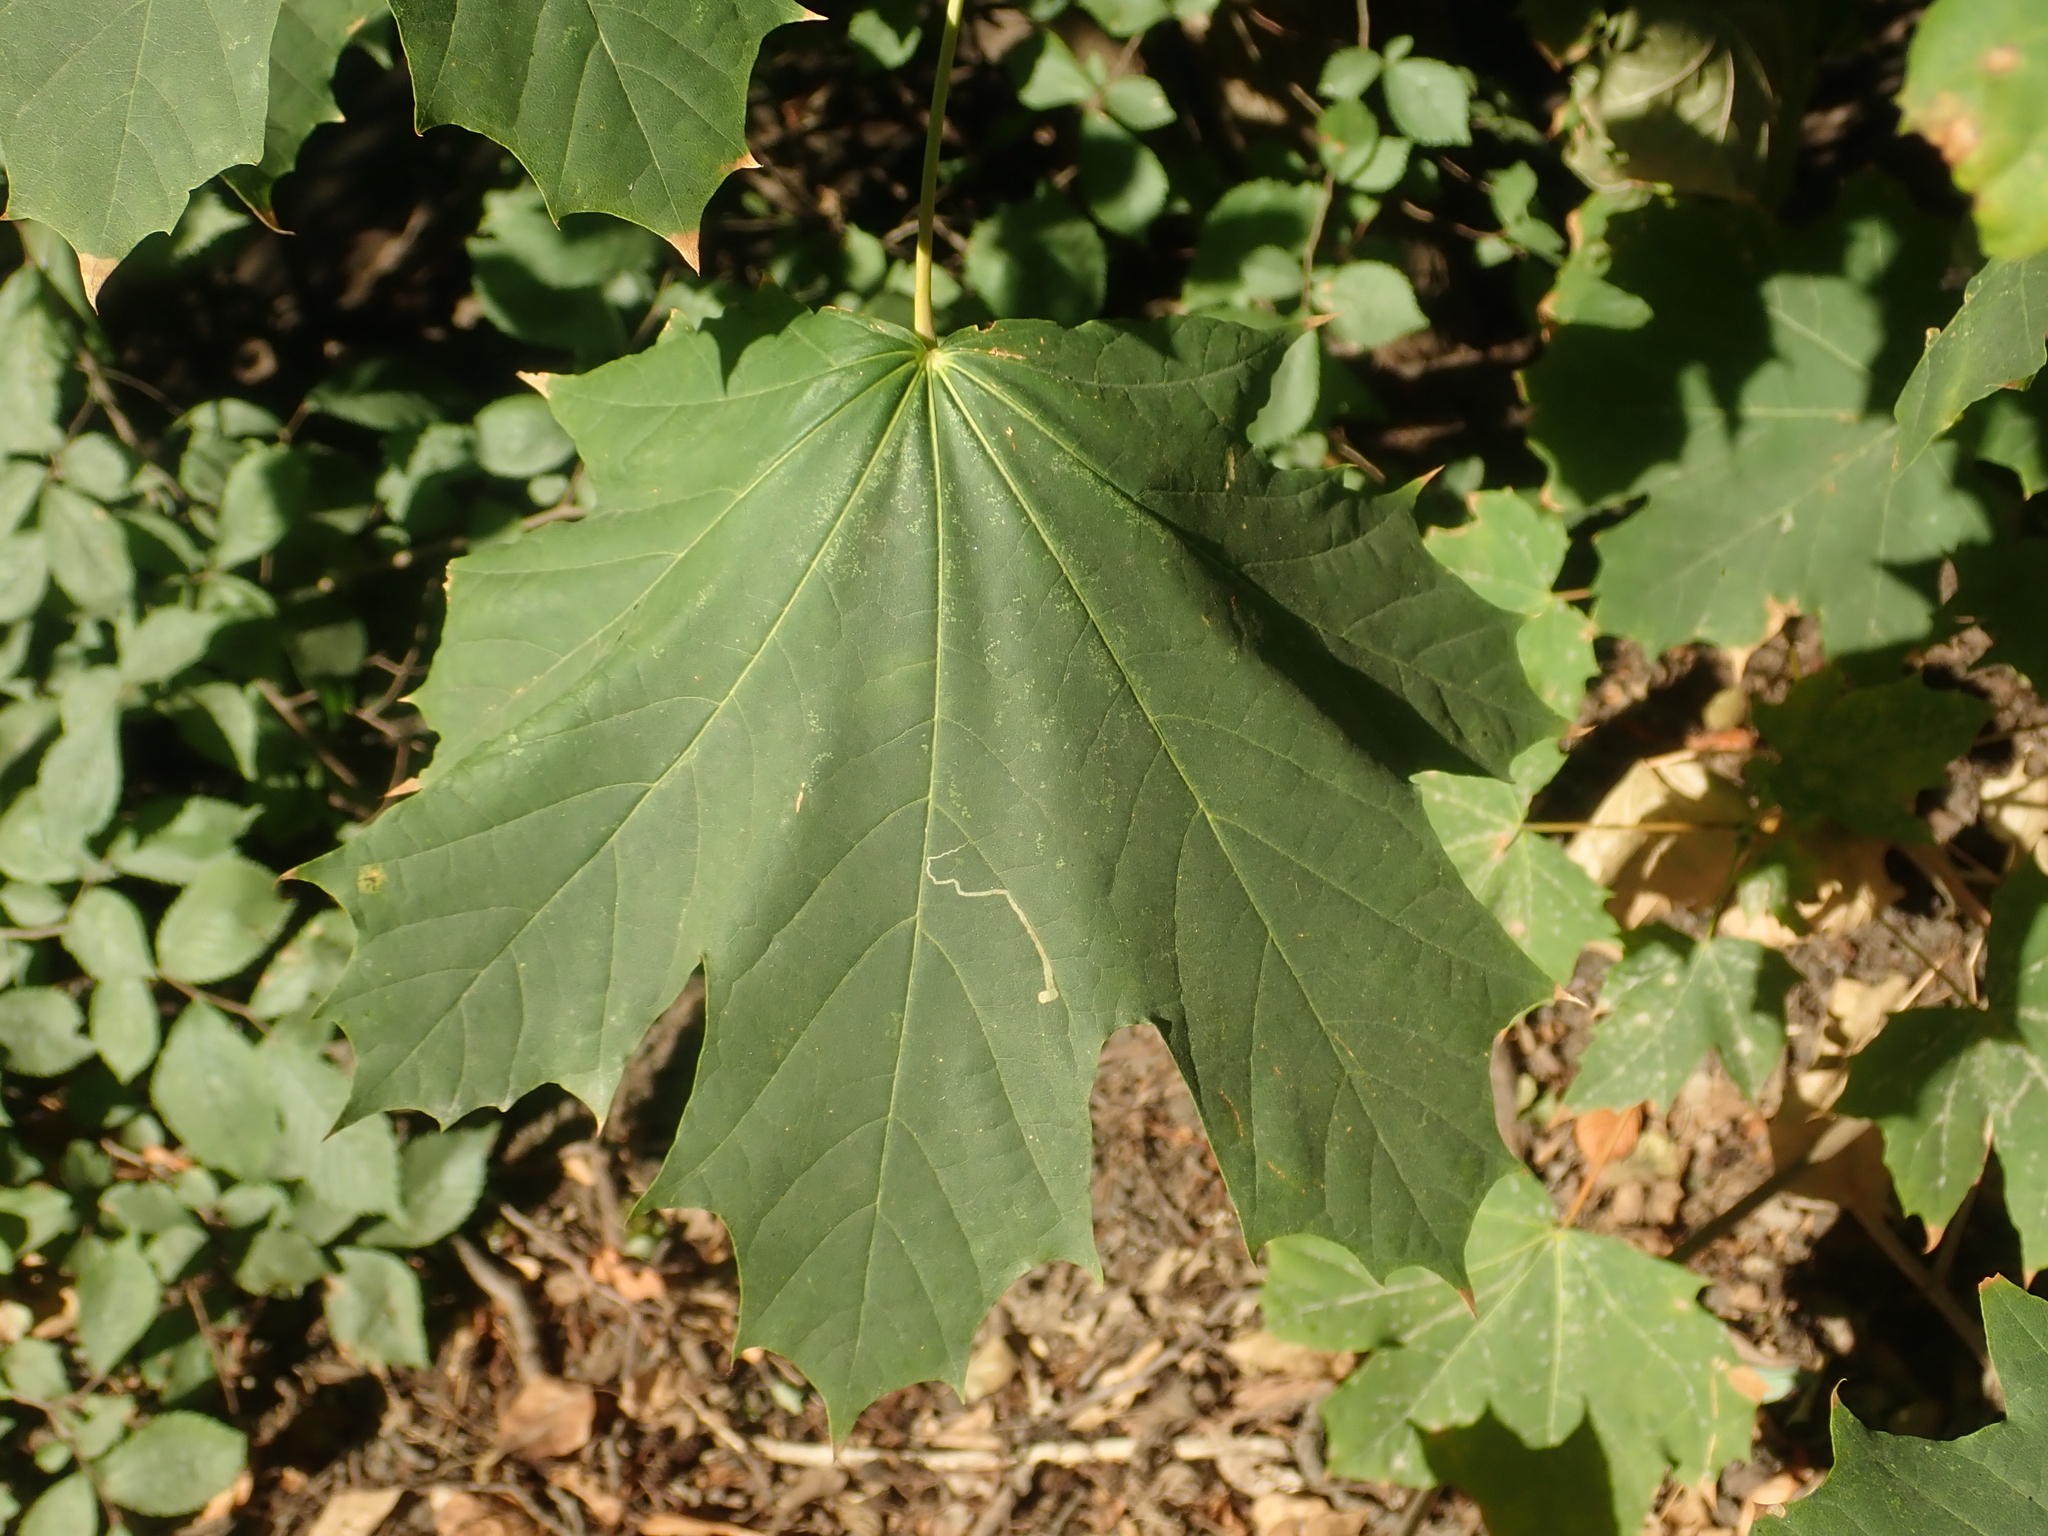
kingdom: Plantae
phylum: Tracheophyta
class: Magnoliopsida
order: Sapindales
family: Sapindaceae
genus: Acer
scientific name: Acer platanoides
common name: Norway maple
